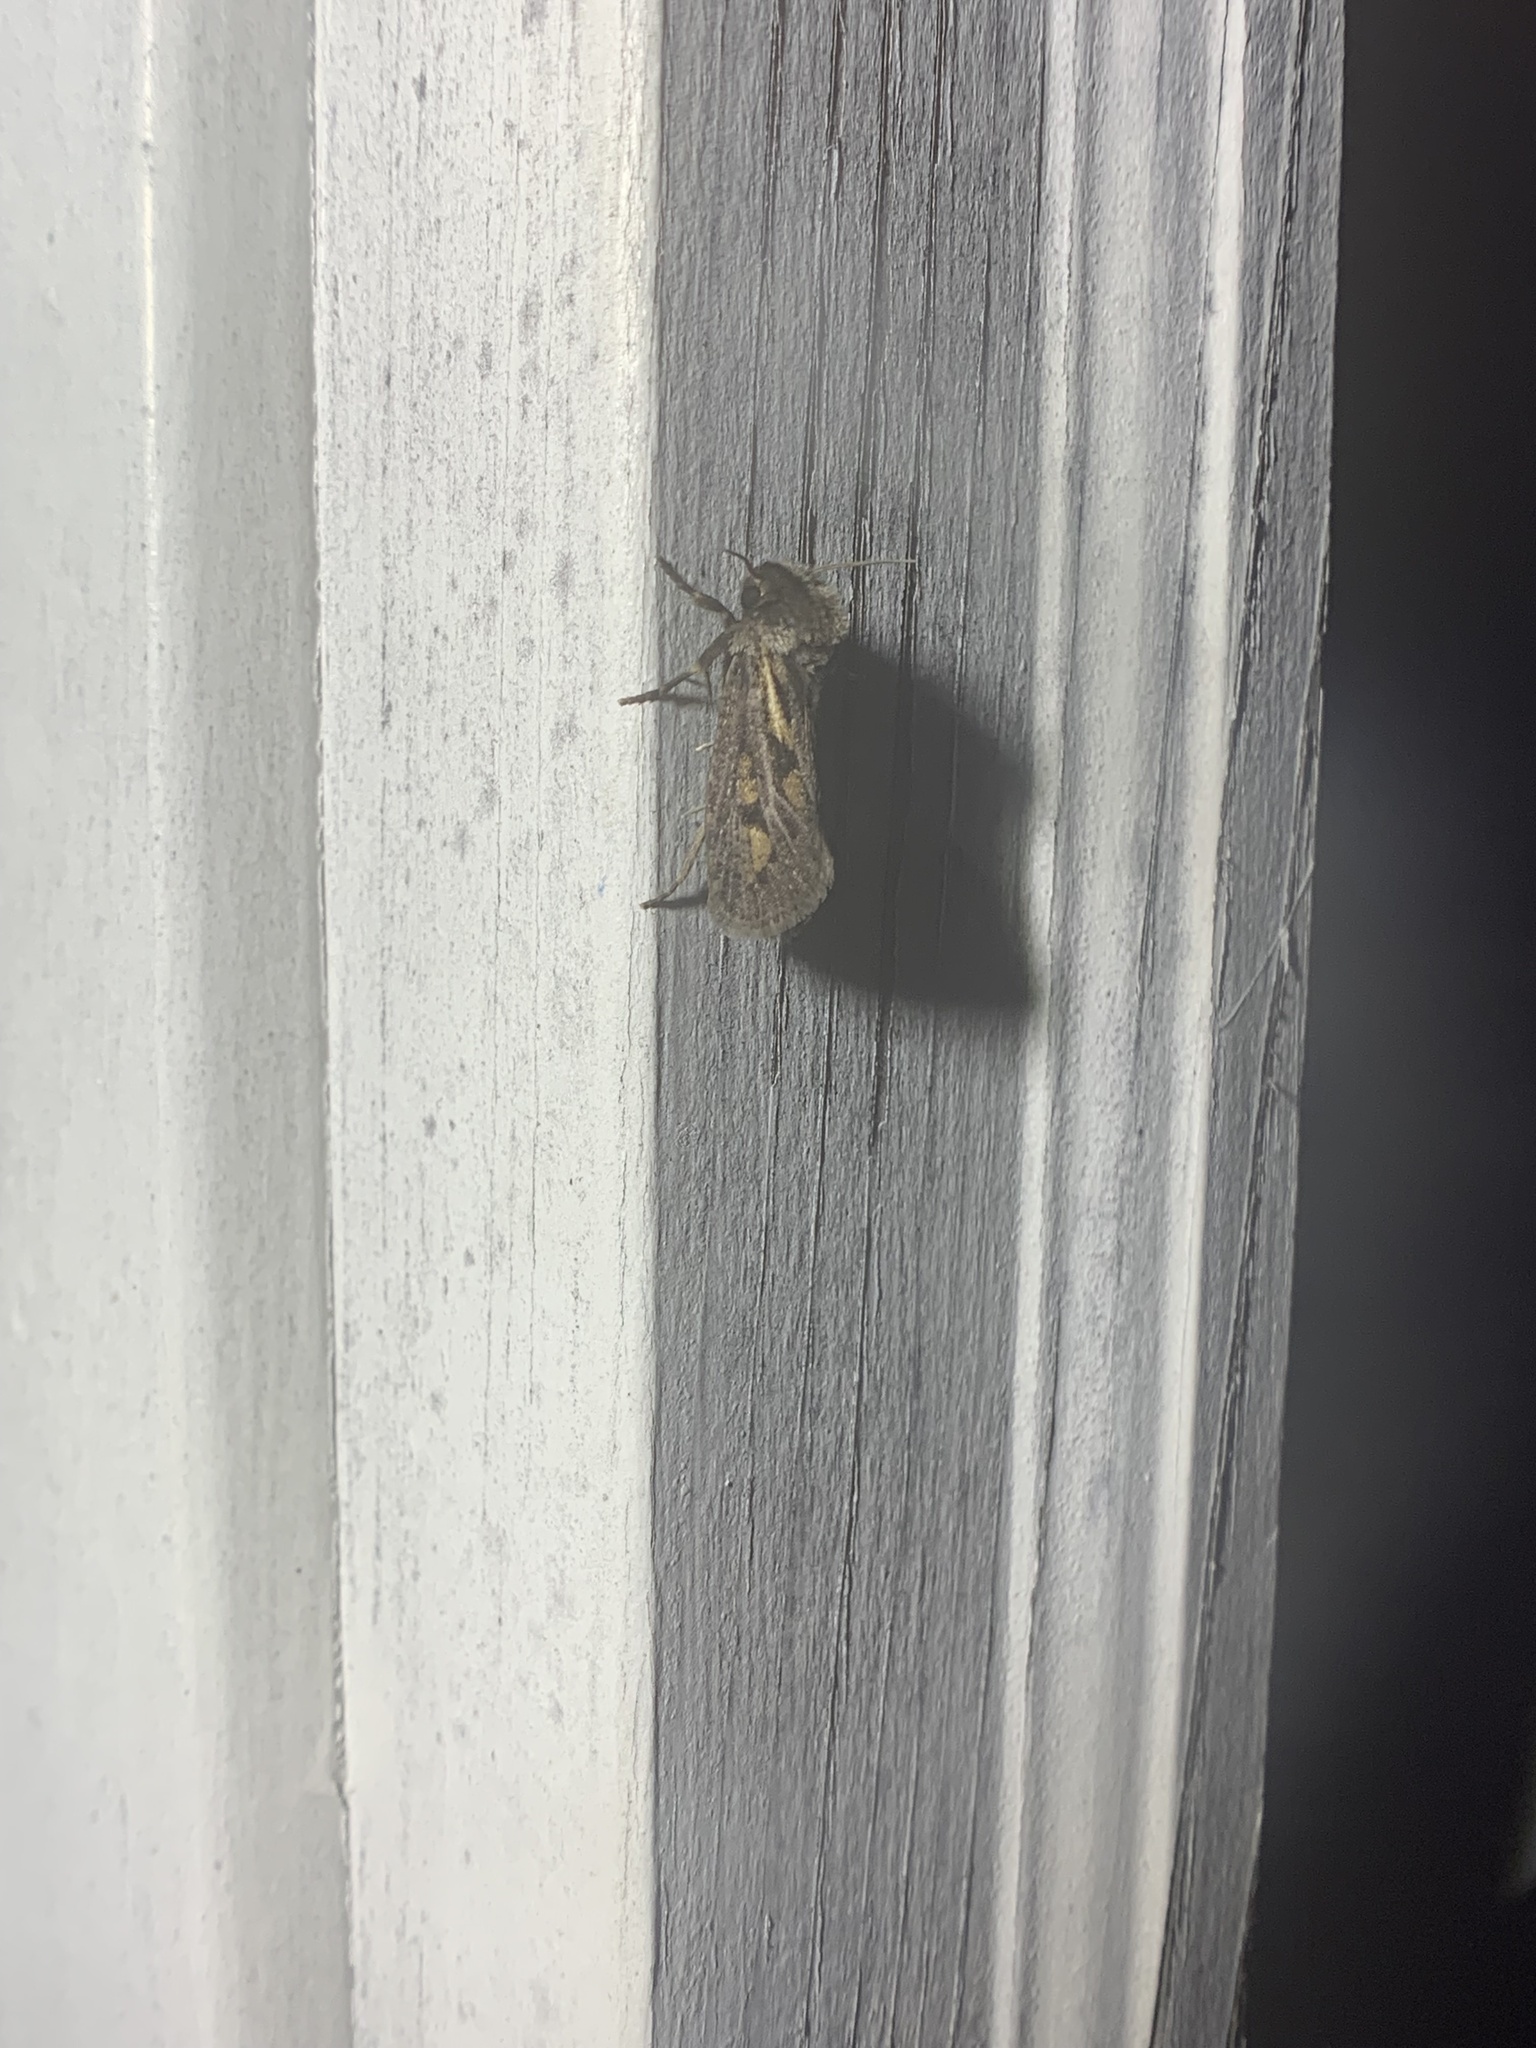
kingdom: Animalia
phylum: Arthropoda
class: Insecta
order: Lepidoptera
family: Tineidae
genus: Acrolophus
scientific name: Acrolophus popeanella
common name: Clemens' grass tubeworm moth
